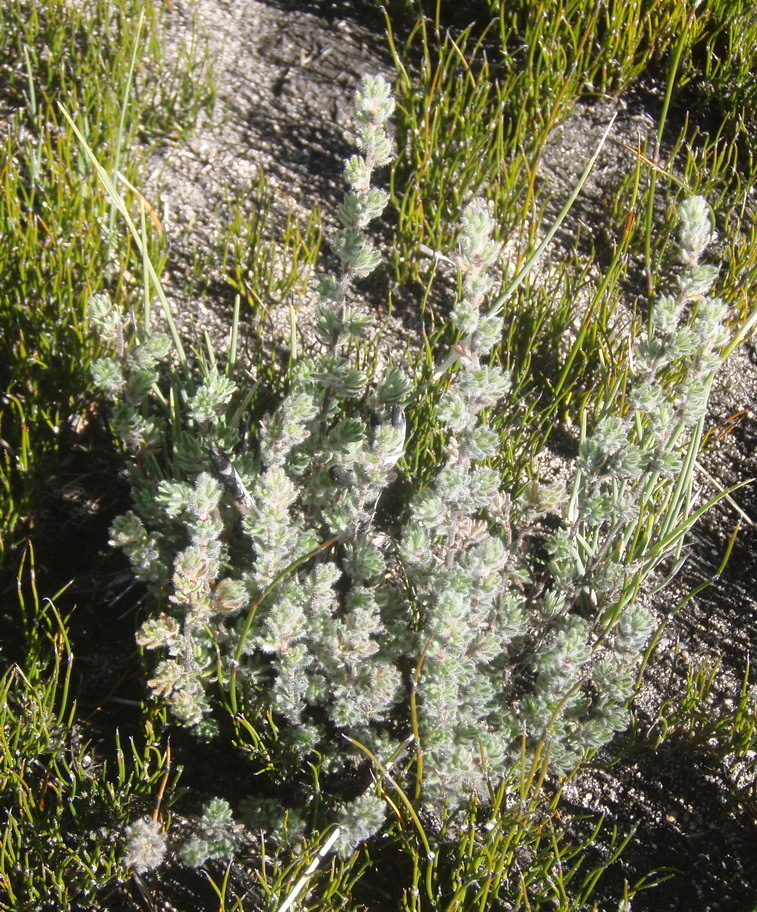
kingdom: Plantae
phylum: Tracheophyta
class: Magnoliopsida
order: Rosales
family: Rosaceae
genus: Cliffortia
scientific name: Cliffortia eriocephalina
